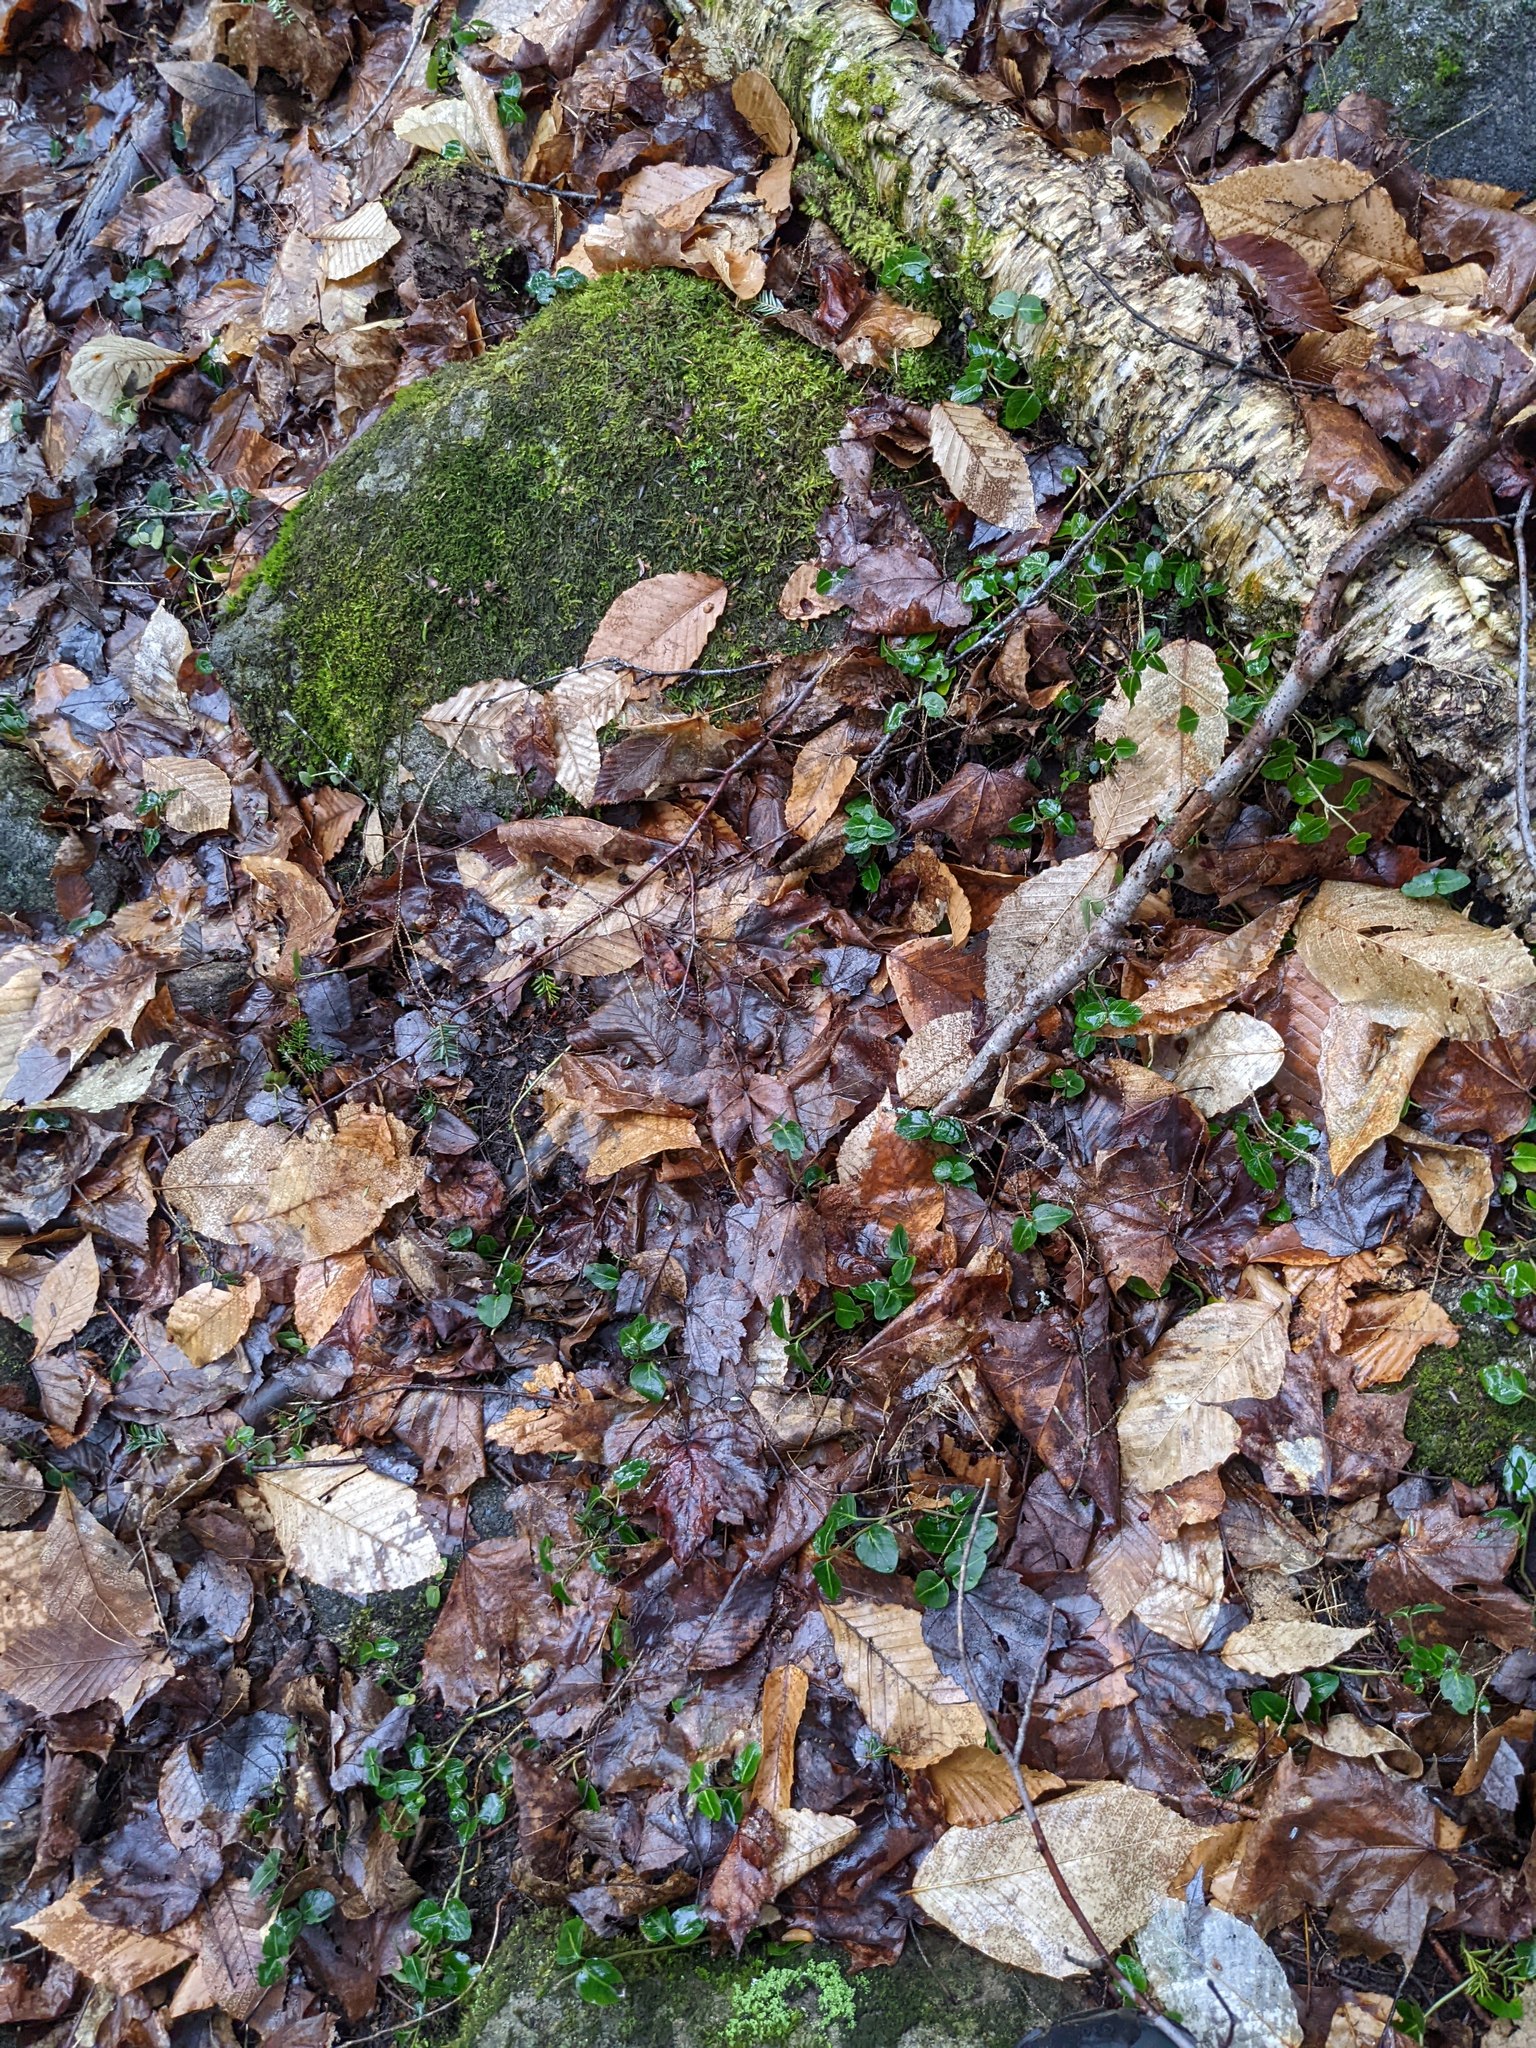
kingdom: Plantae
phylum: Tracheophyta
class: Magnoliopsida
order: Fagales
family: Fagaceae
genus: Fagus
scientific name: Fagus grandifolia
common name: American beech
